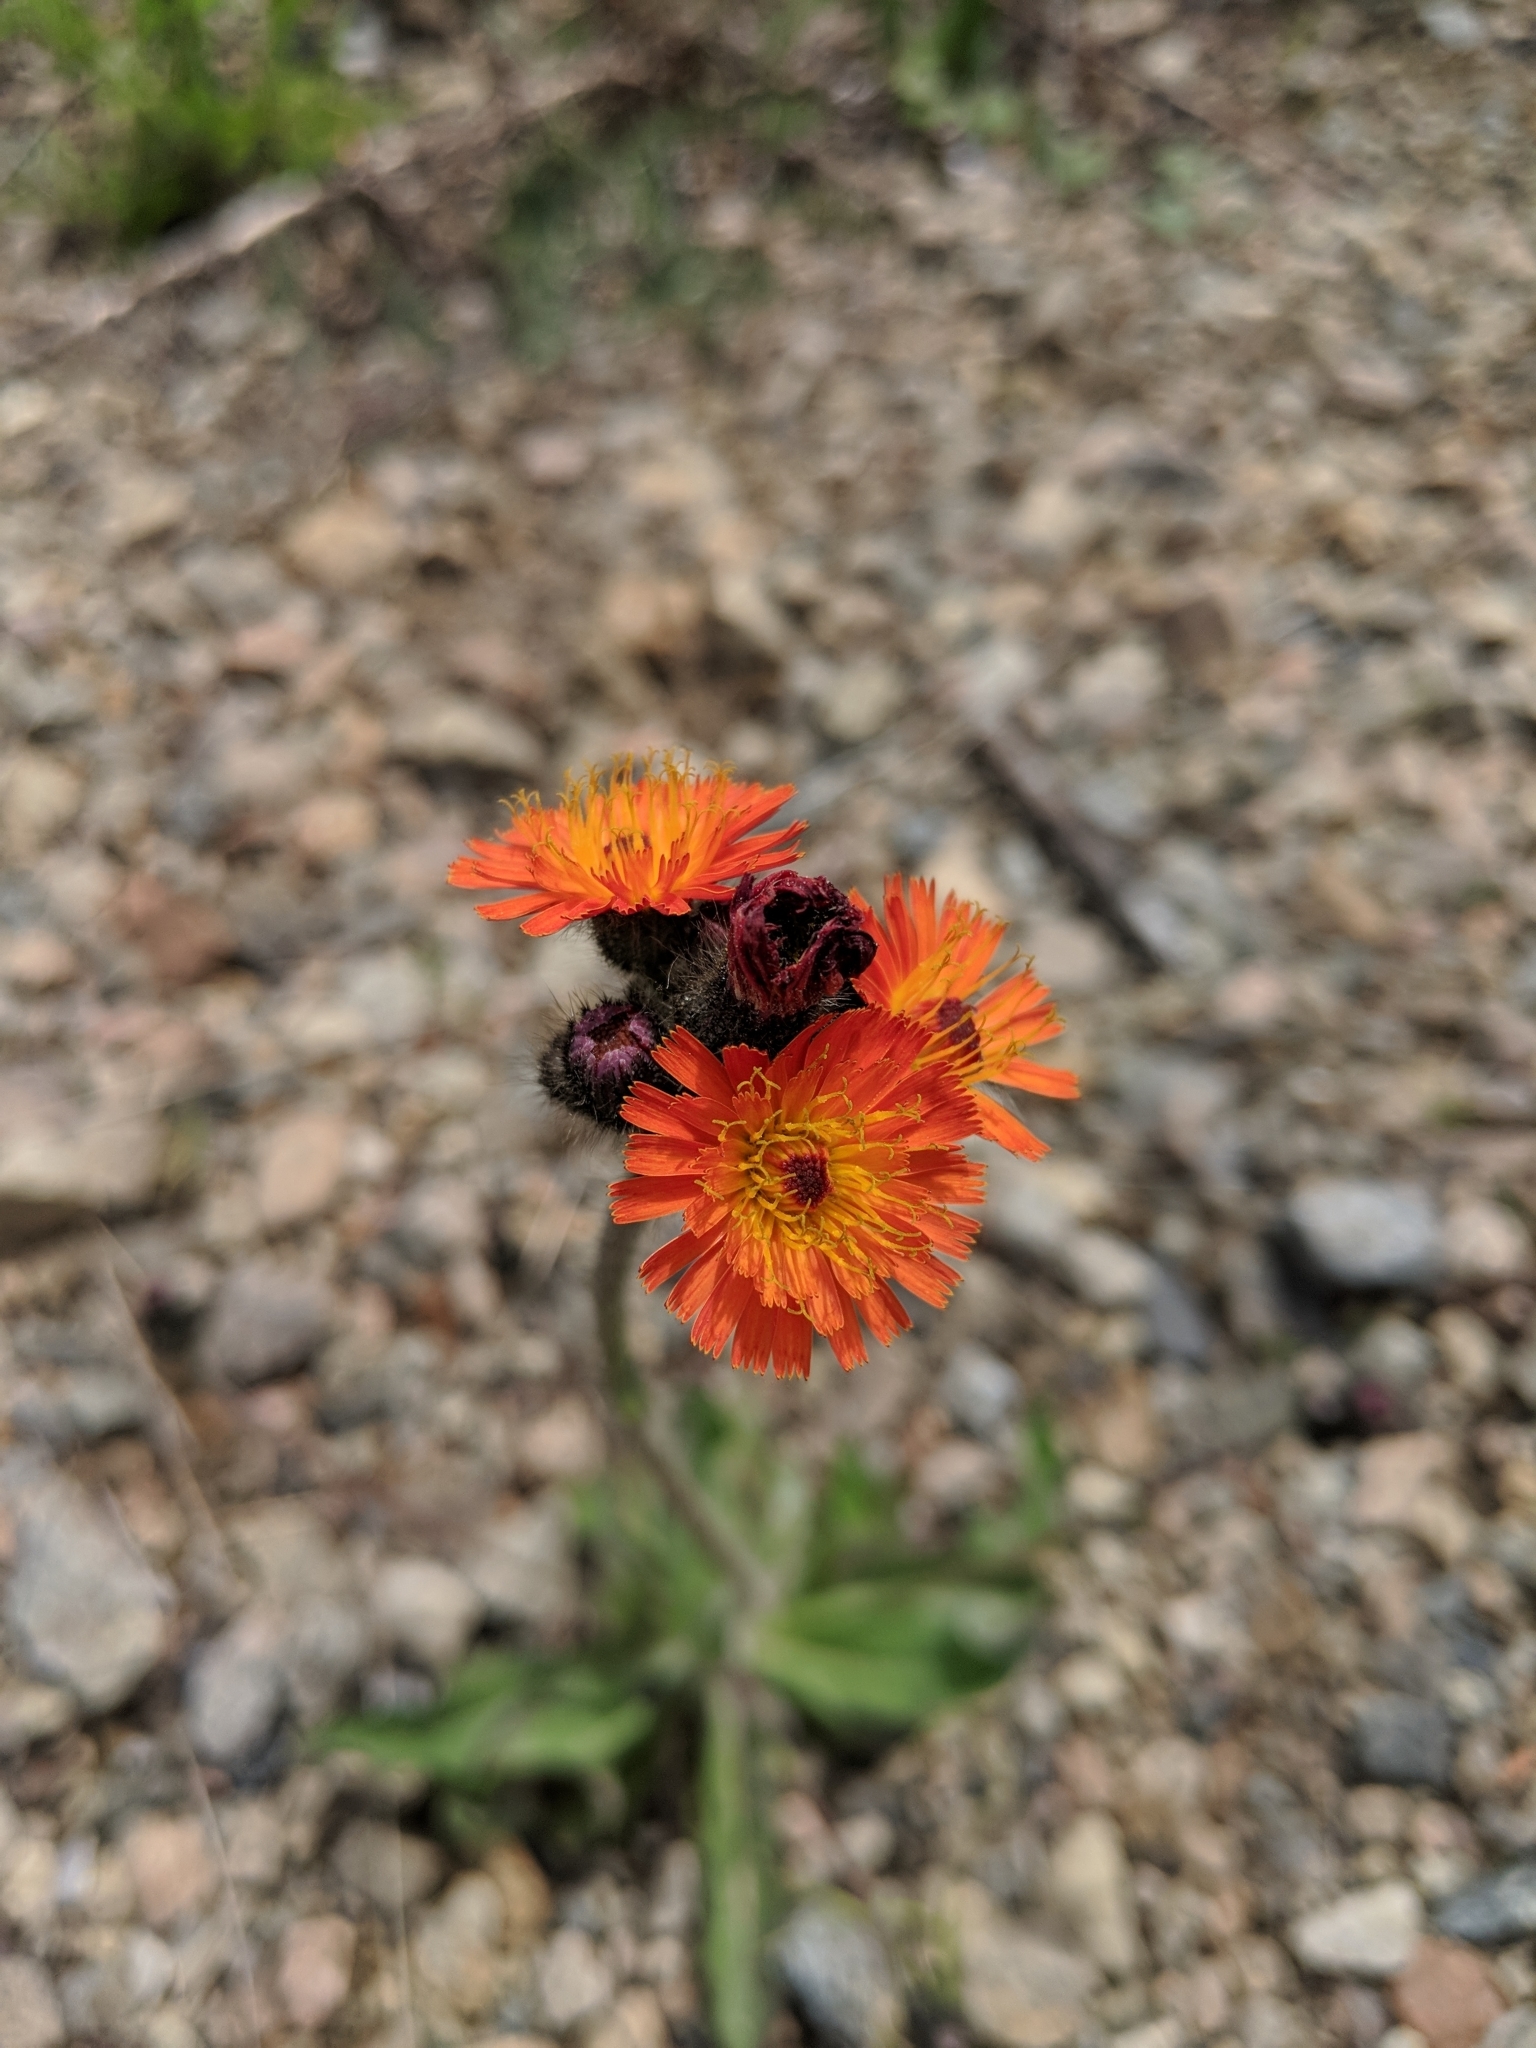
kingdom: Plantae
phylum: Tracheophyta
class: Magnoliopsida
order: Asterales
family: Asteraceae
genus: Pilosella
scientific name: Pilosella aurantiaca
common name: Fox-and-cubs
